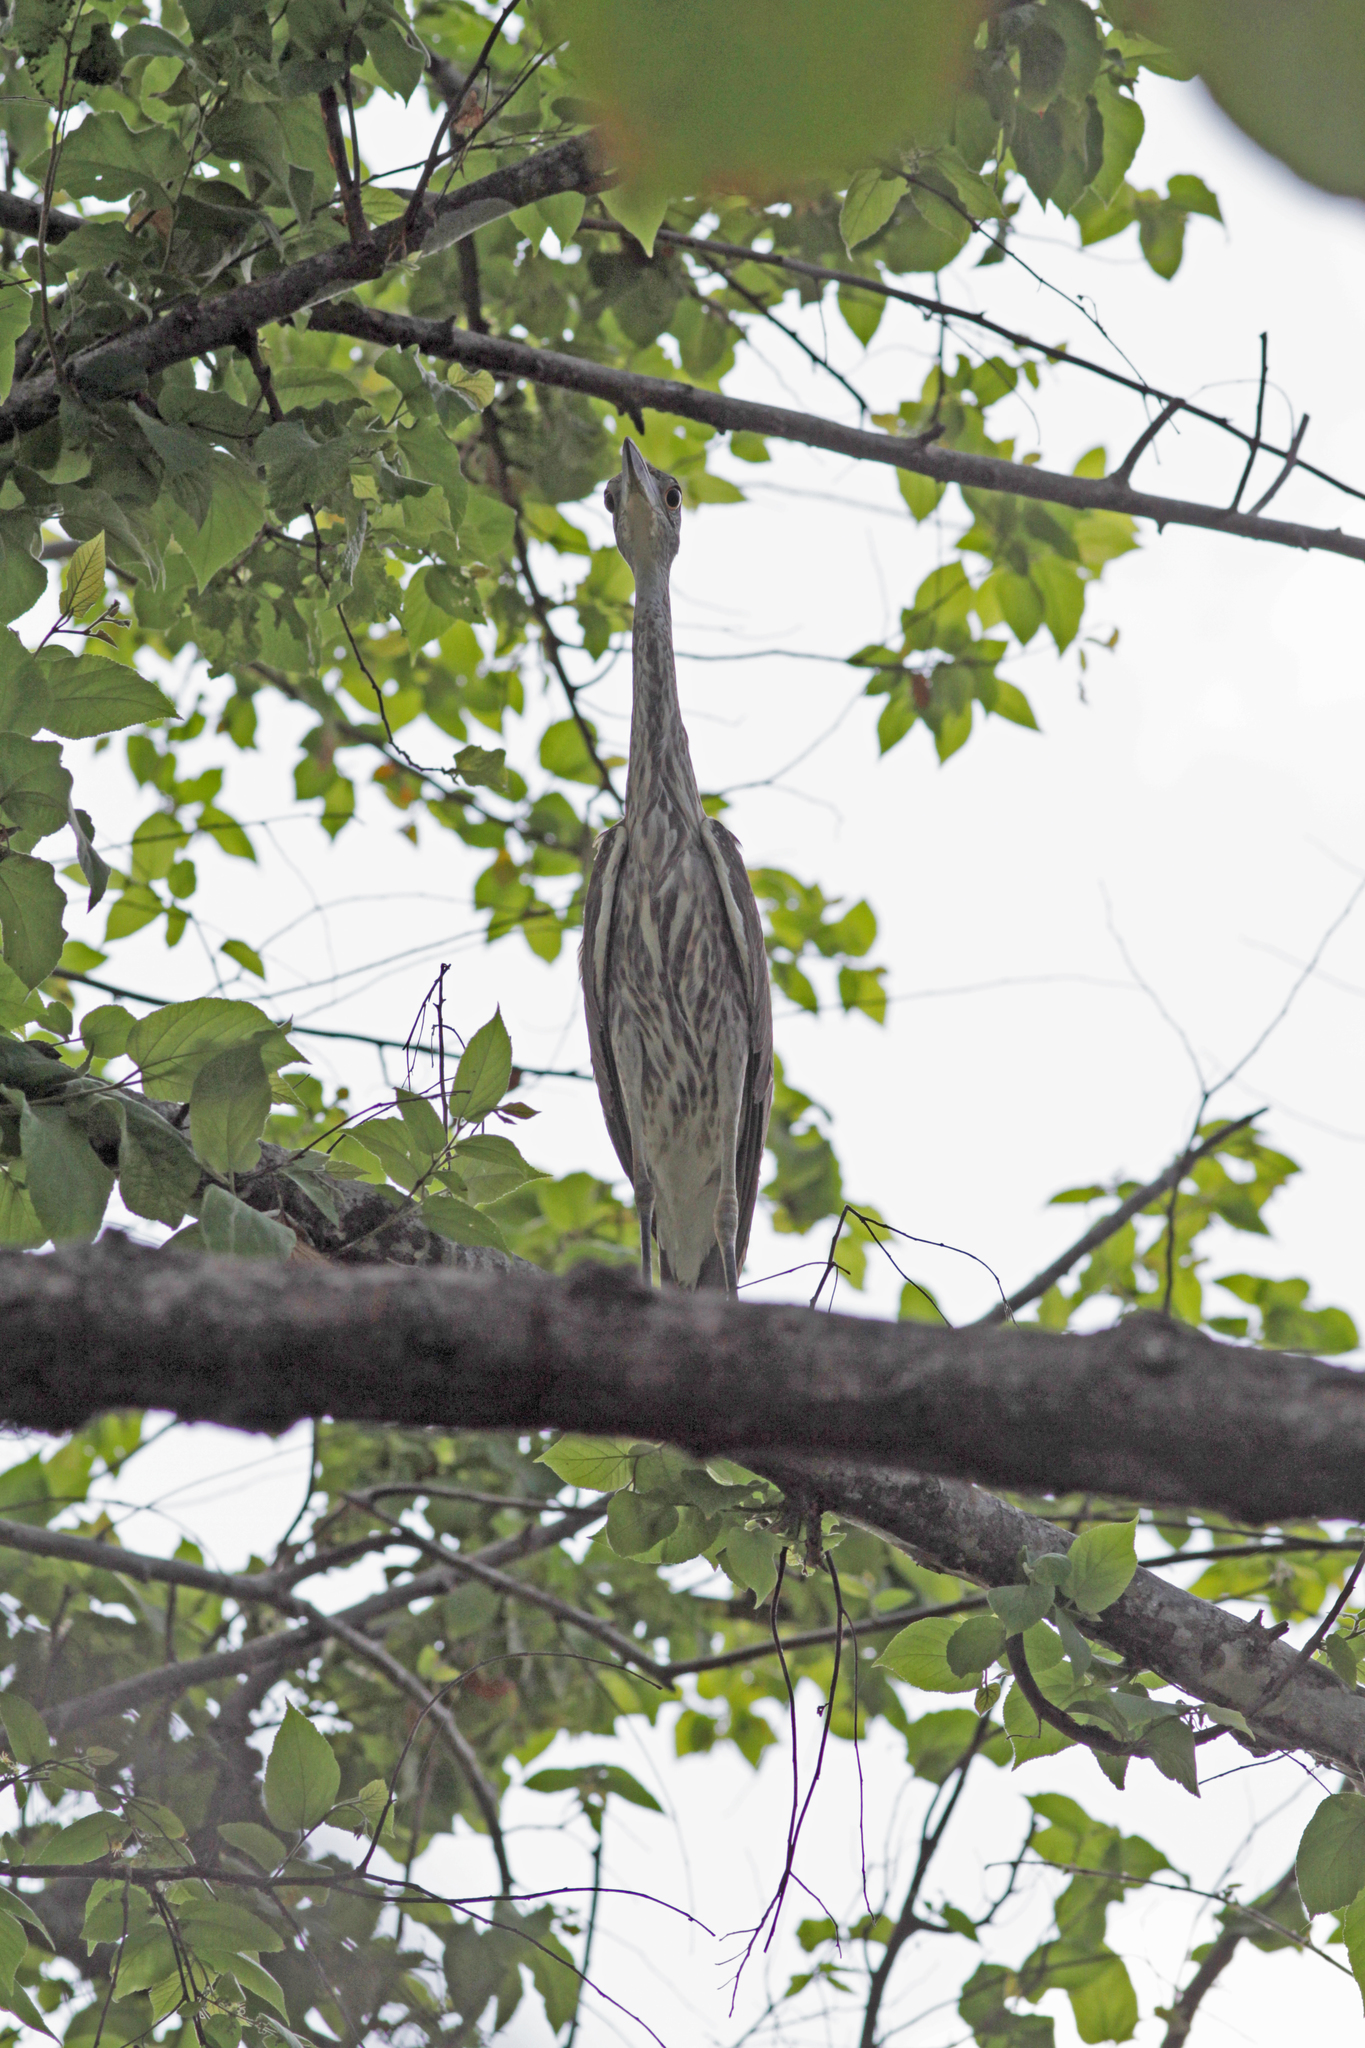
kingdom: Animalia
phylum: Chordata
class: Aves
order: Pelecaniformes
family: Ardeidae
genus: Nyctanassa
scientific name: Nyctanassa violacea
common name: Yellow-crowned night heron
